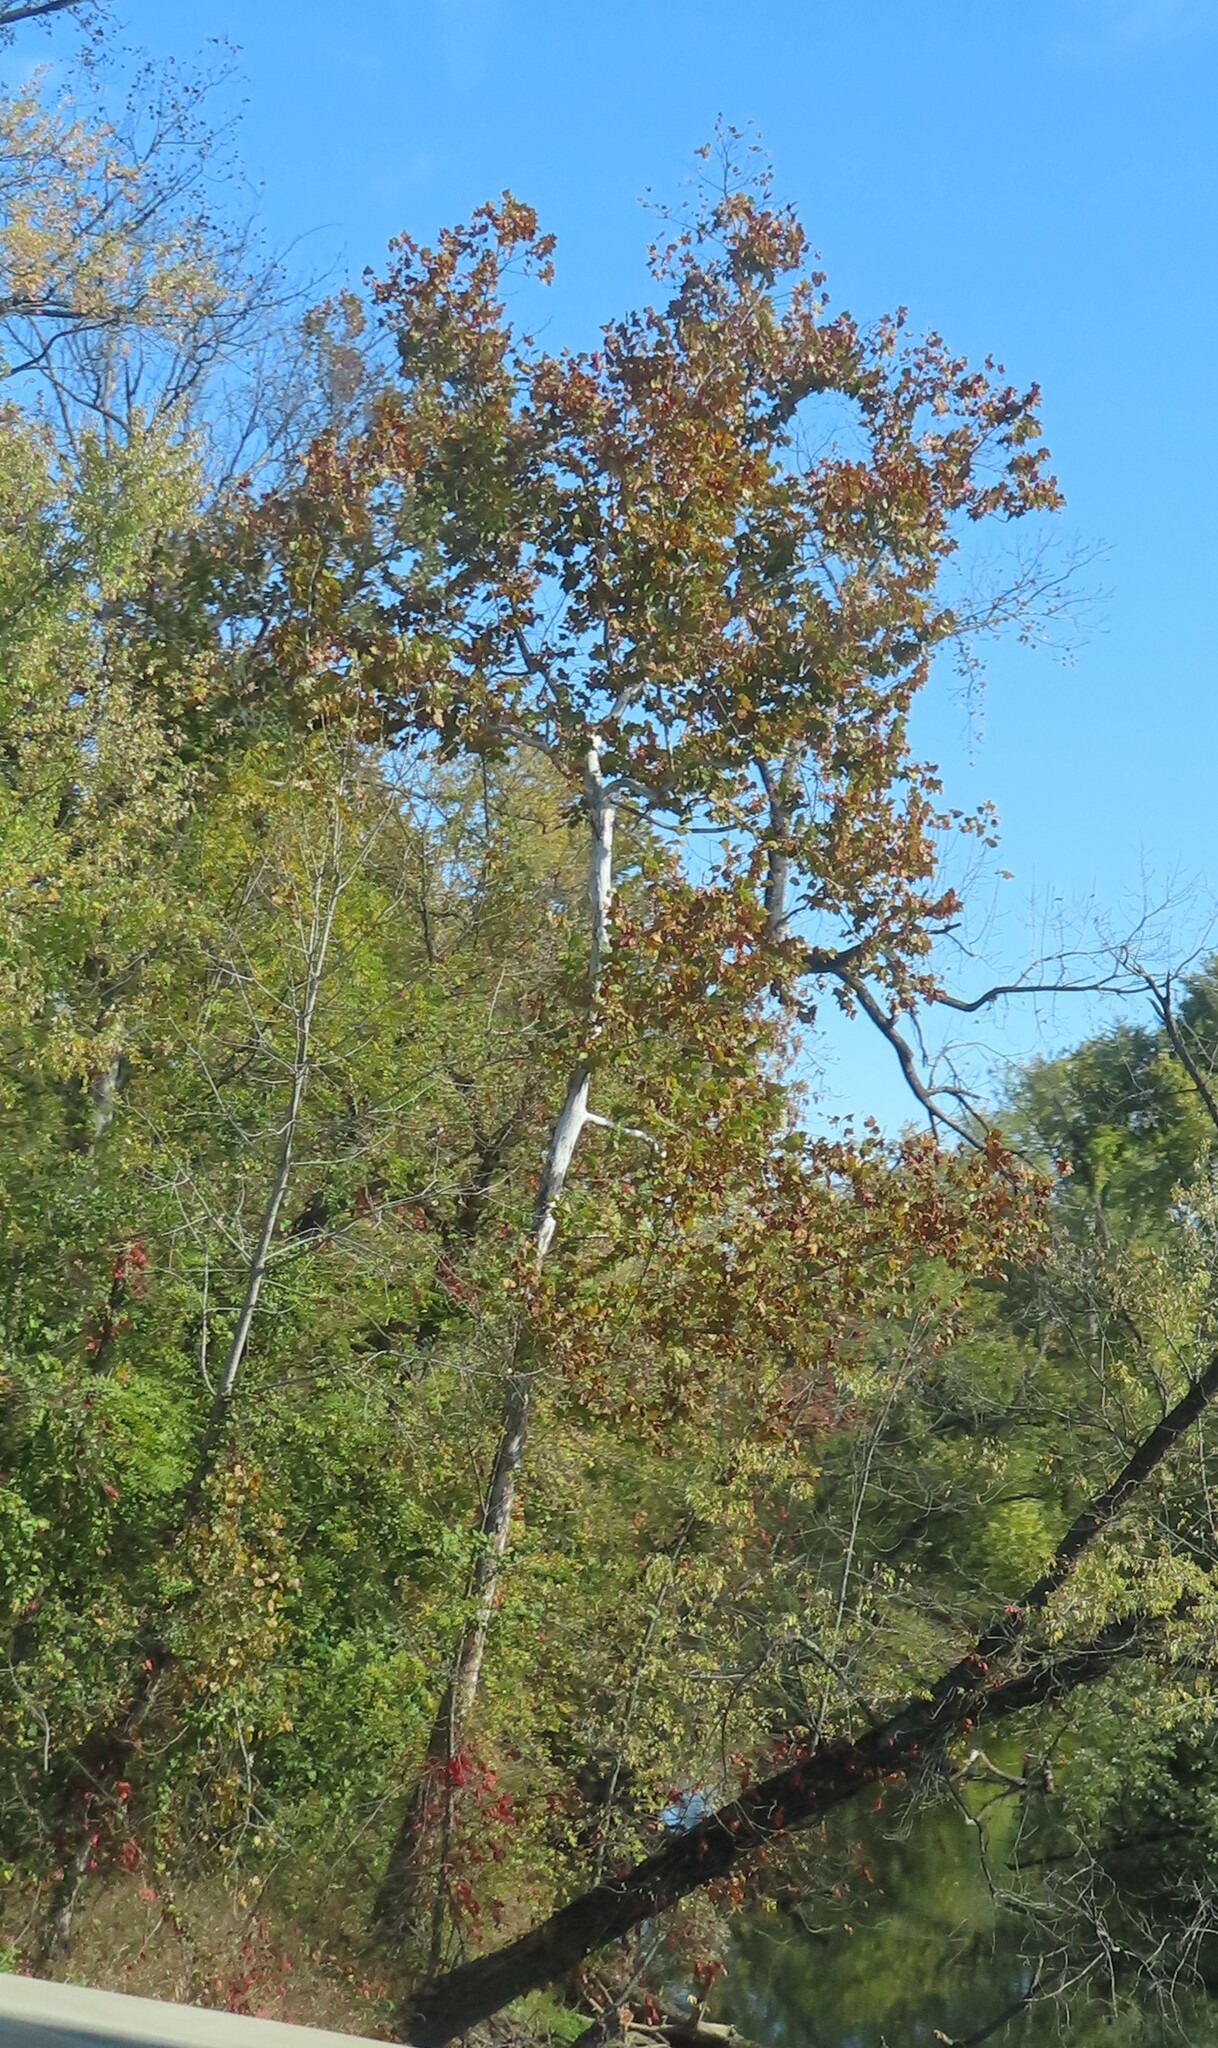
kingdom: Plantae
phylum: Tracheophyta
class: Magnoliopsida
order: Proteales
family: Platanaceae
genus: Platanus
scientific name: Platanus occidentalis
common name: American sycamore
